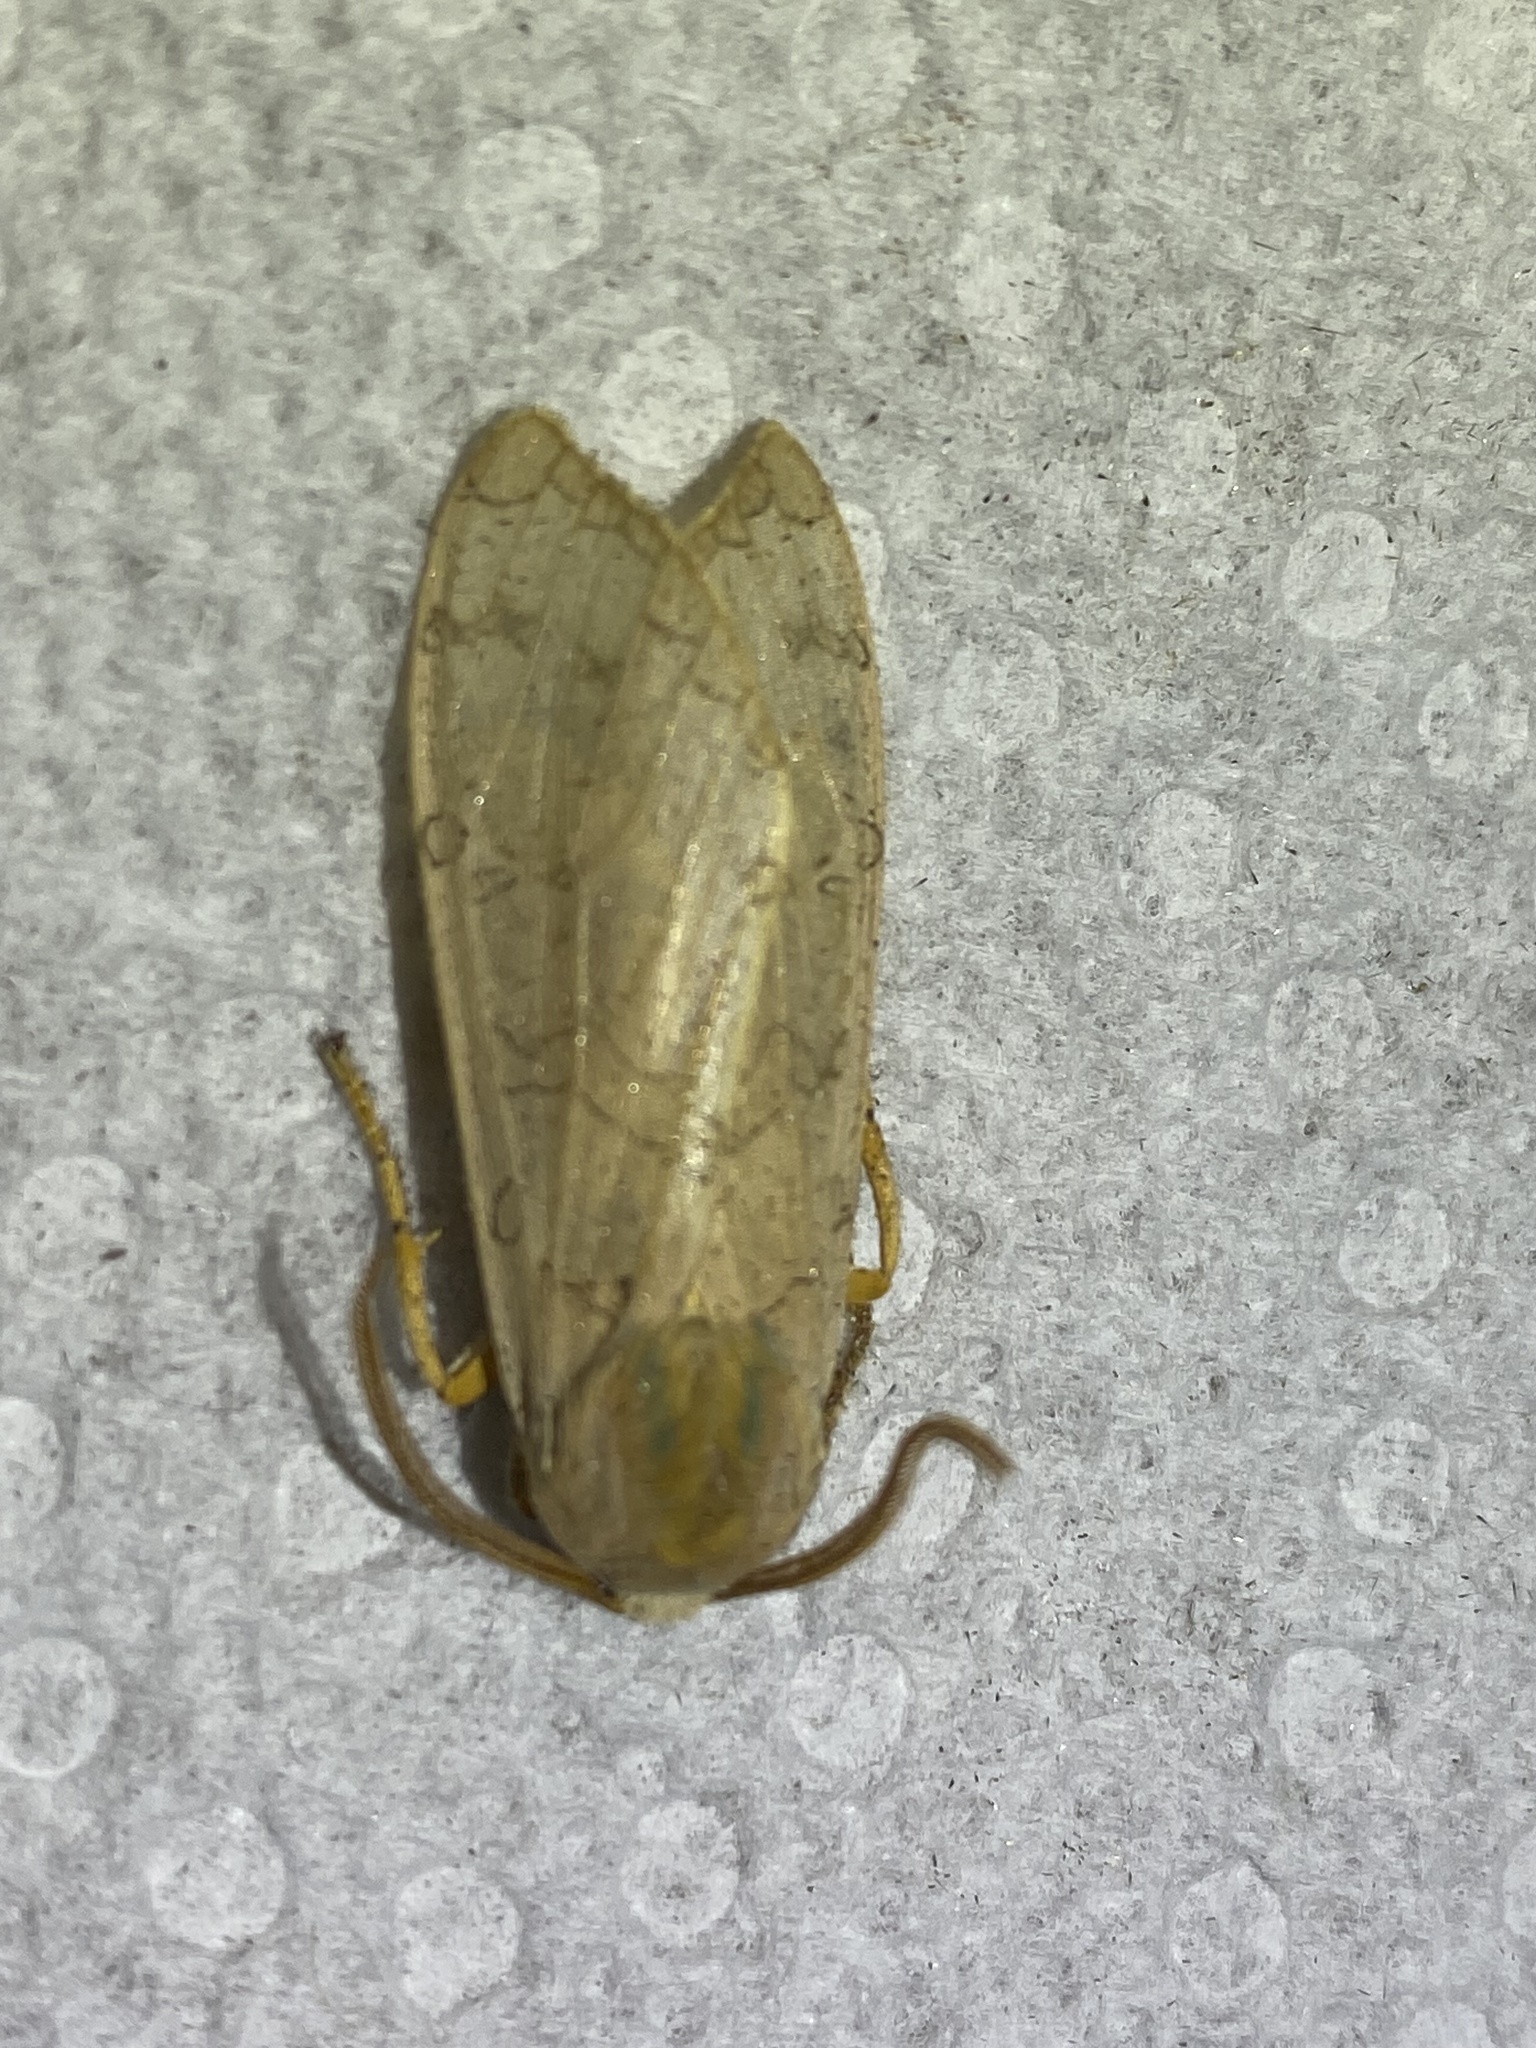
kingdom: Animalia
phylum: Arthropoda
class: Insecta
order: Lepidoptera
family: Erebidae
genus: Halysidota
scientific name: Halysidota
